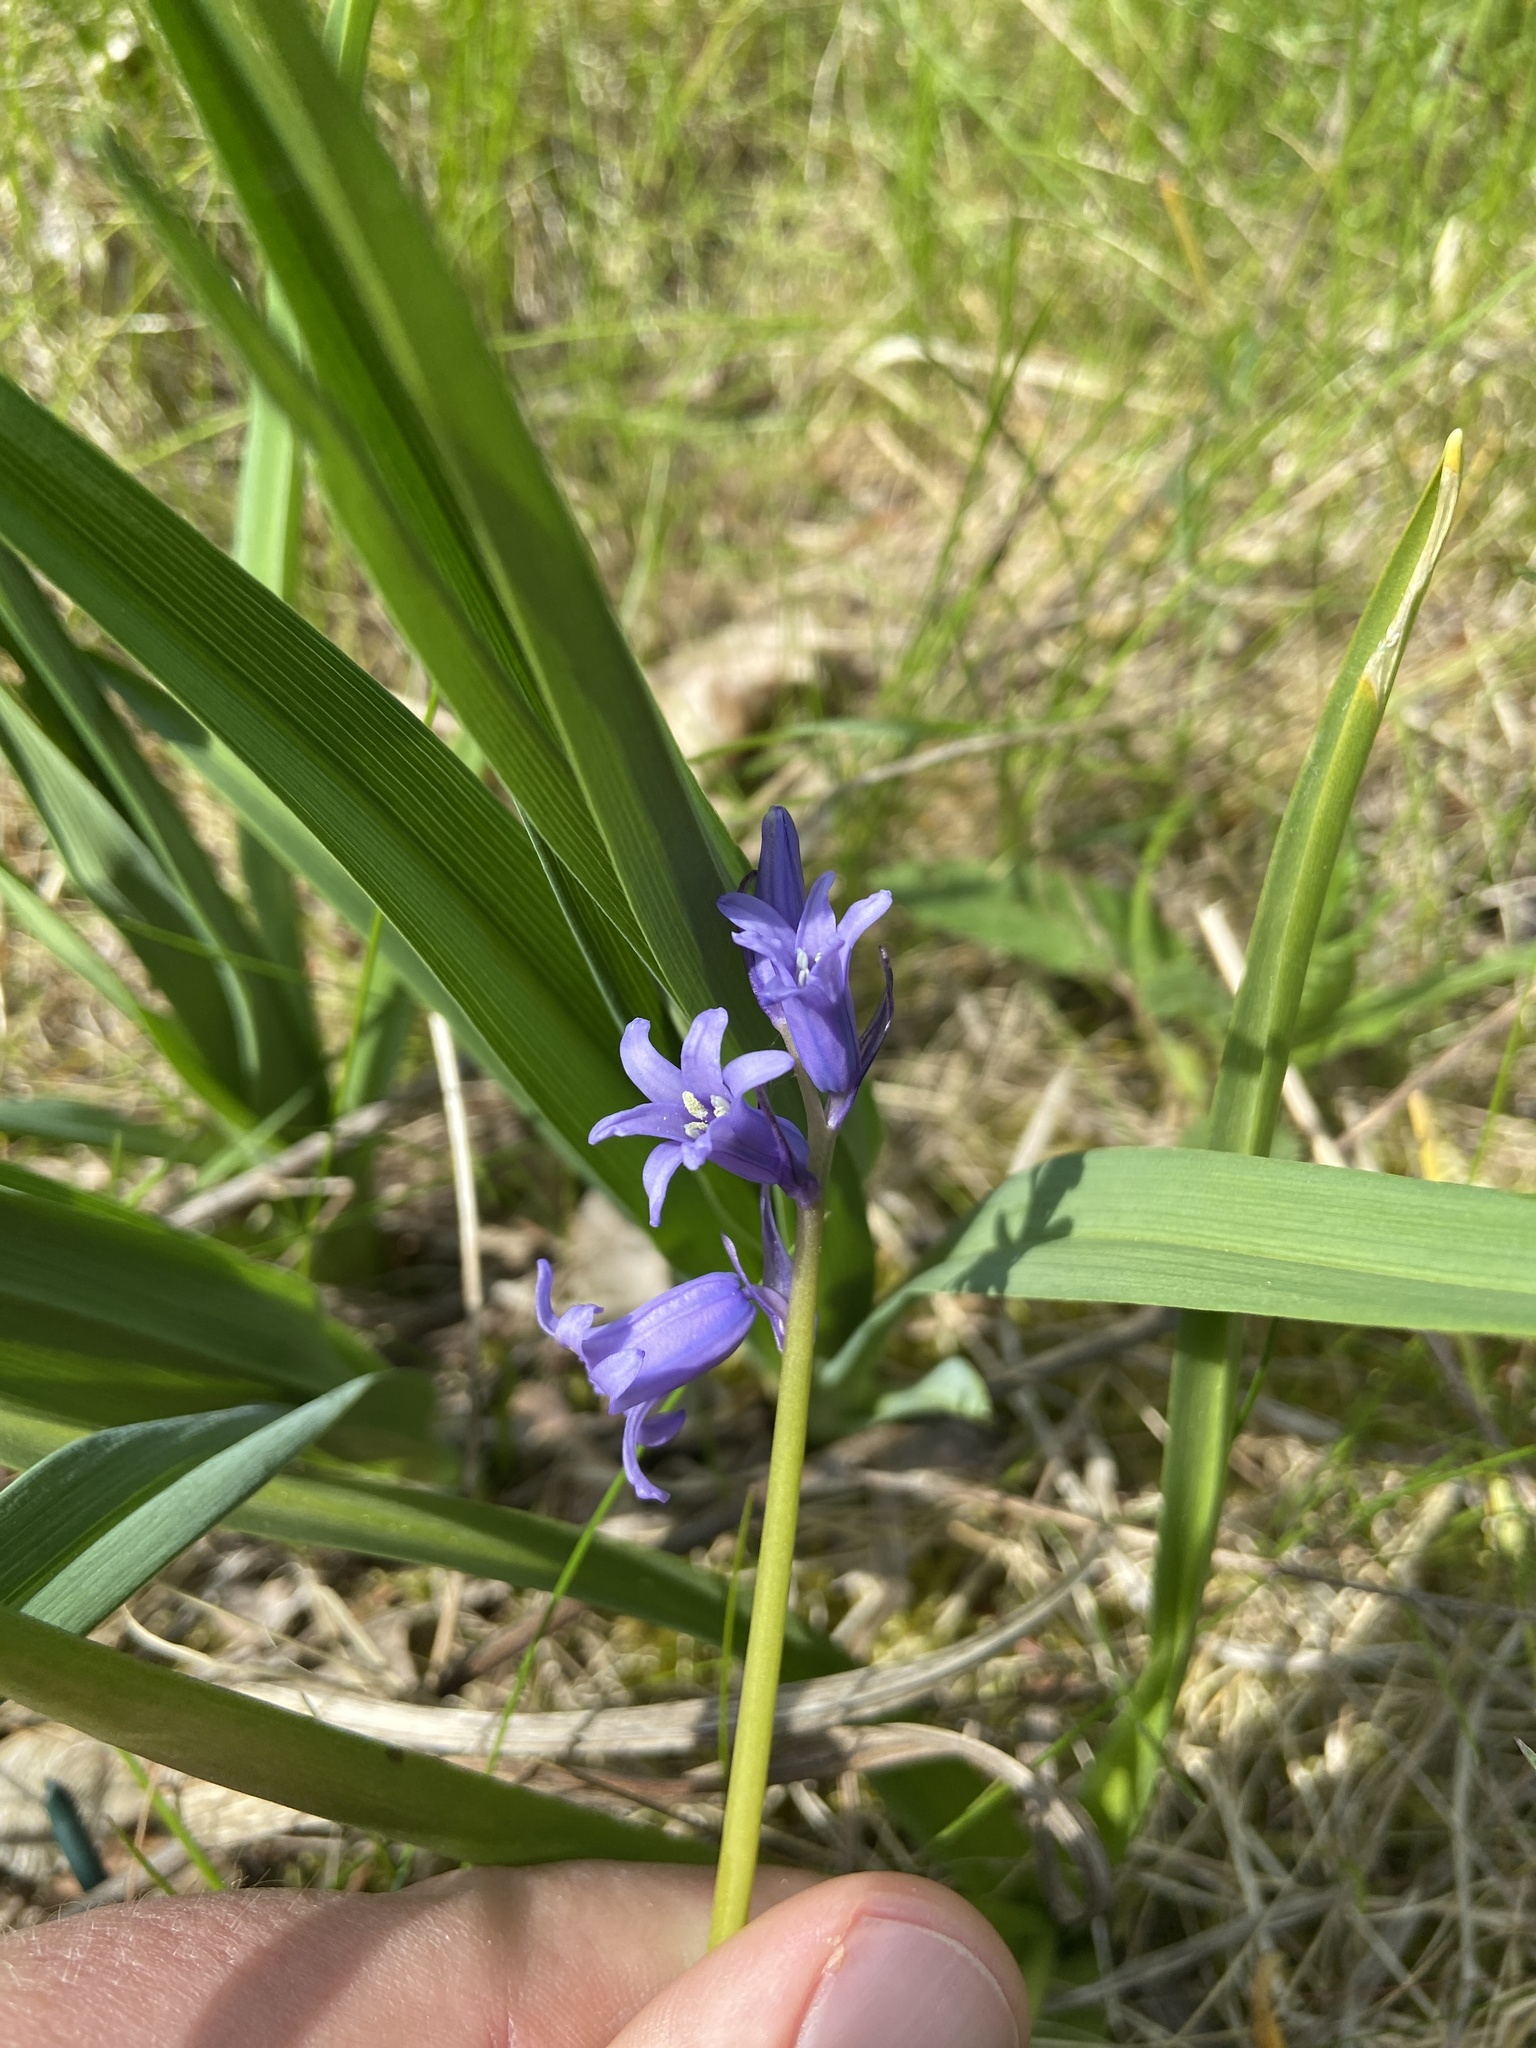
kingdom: Plantae
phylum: Tracheophyta
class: Liliopsida
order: Asparagales
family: Asparagaceae
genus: Hyacinthoides
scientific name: Hyacinthoides hispanica
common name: Spanish bluebell
